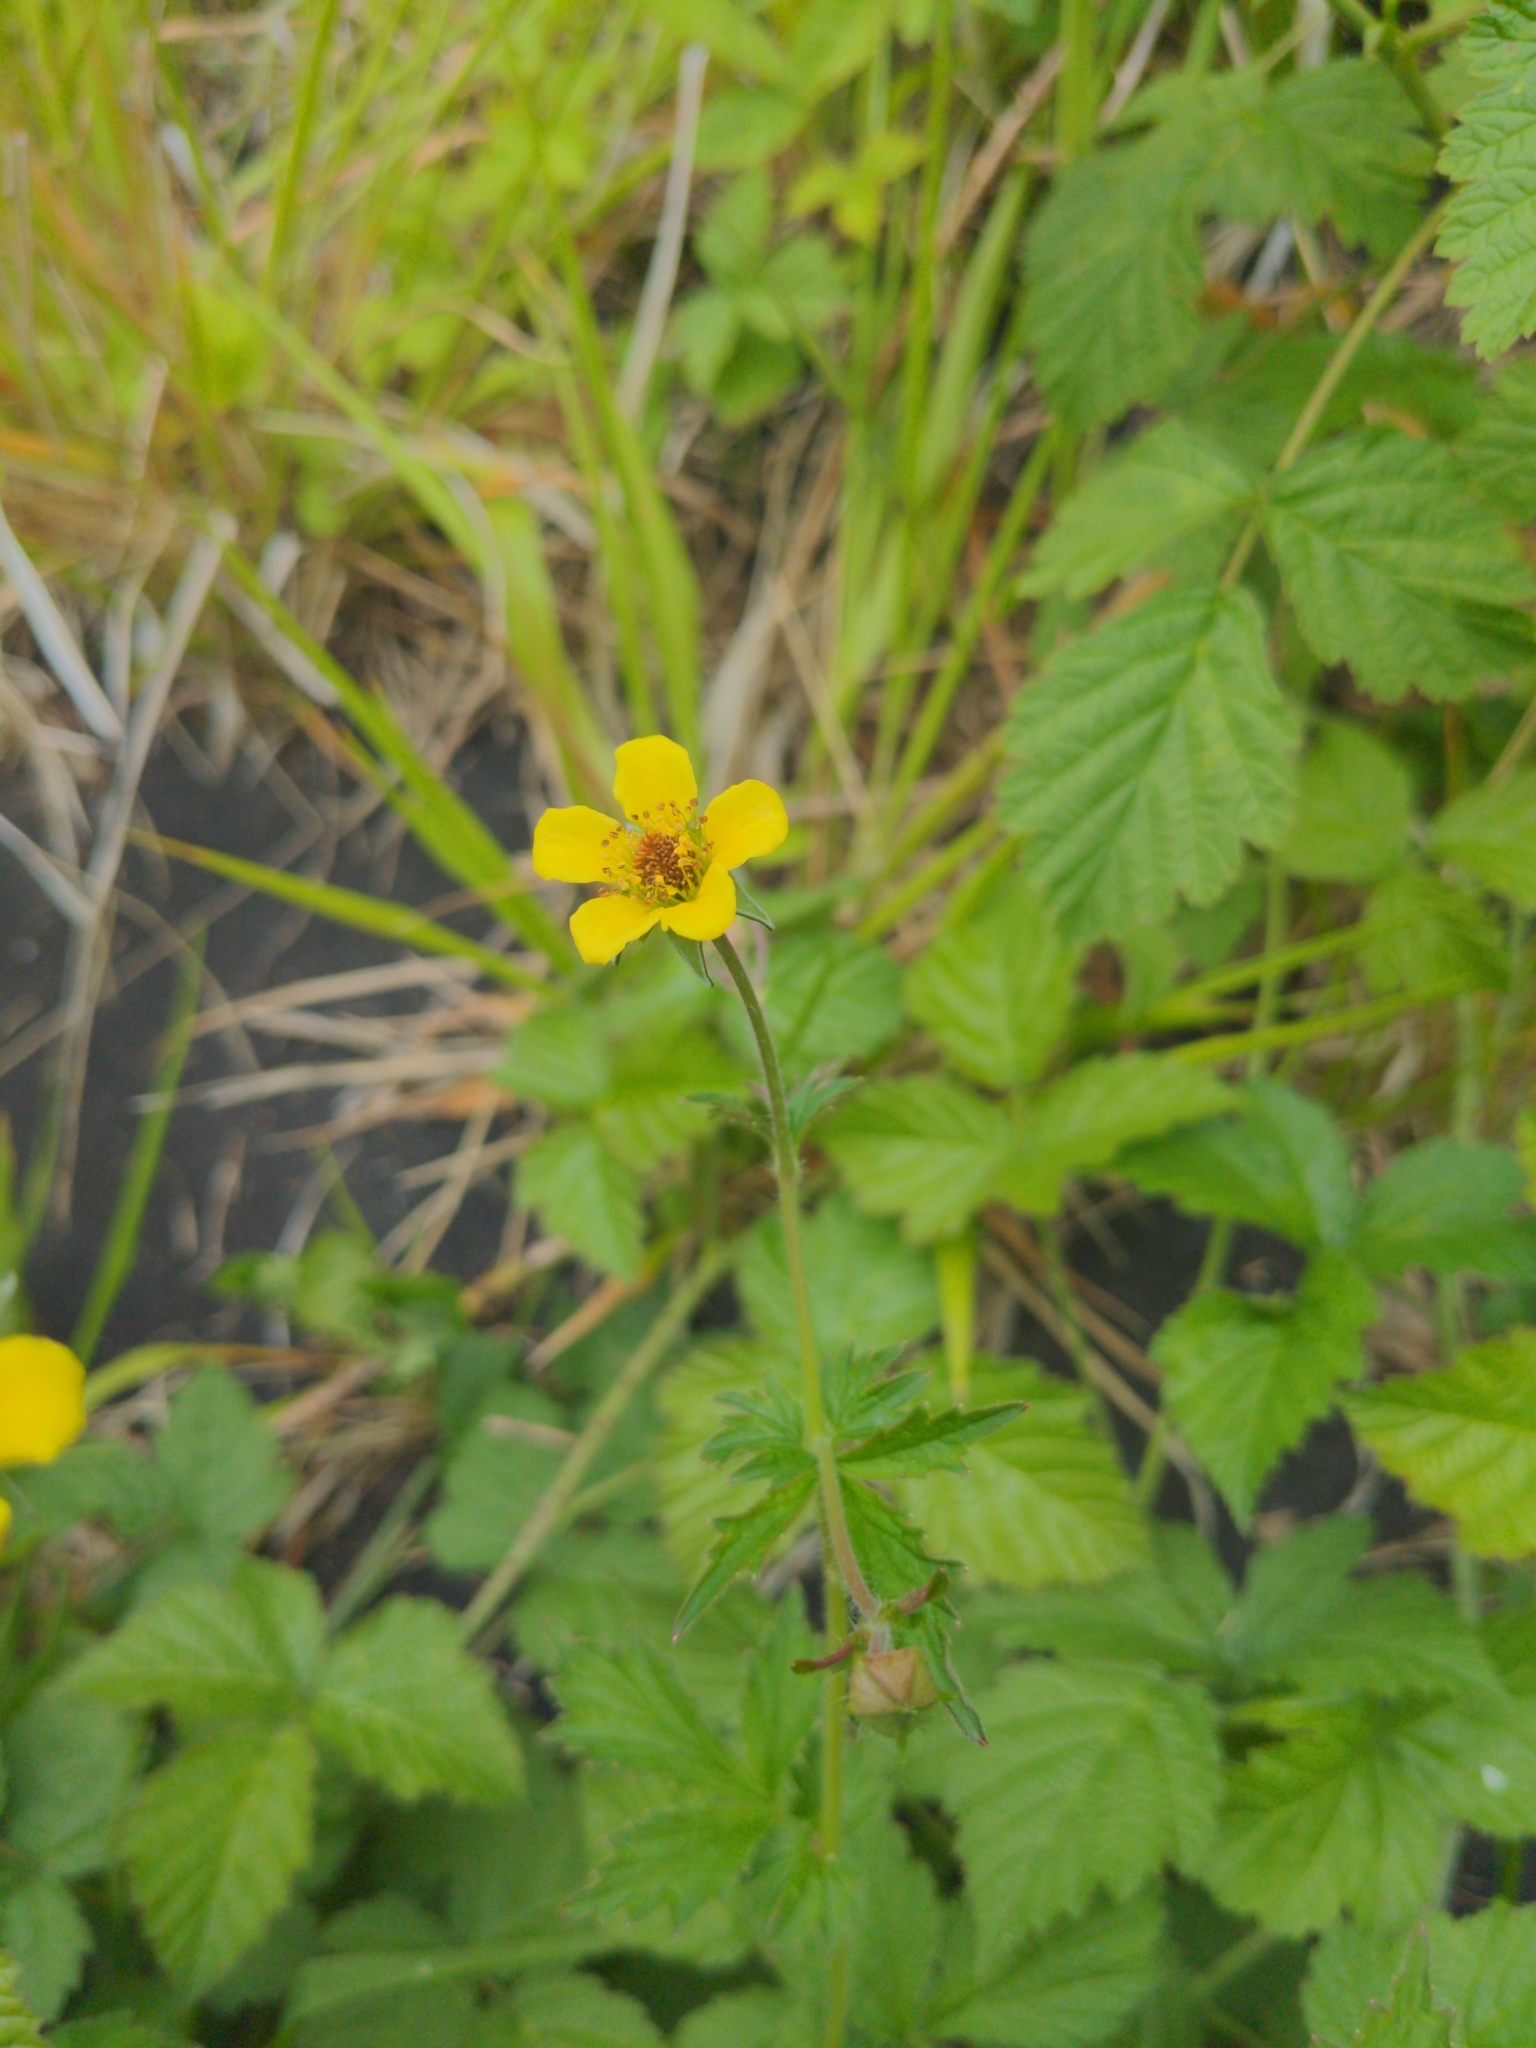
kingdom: Plantae
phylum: Tracheophyta
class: Magnoliopsida
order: Rosales
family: Rosaceae
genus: Geum
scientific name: Geum urbanum
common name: Wood avens
